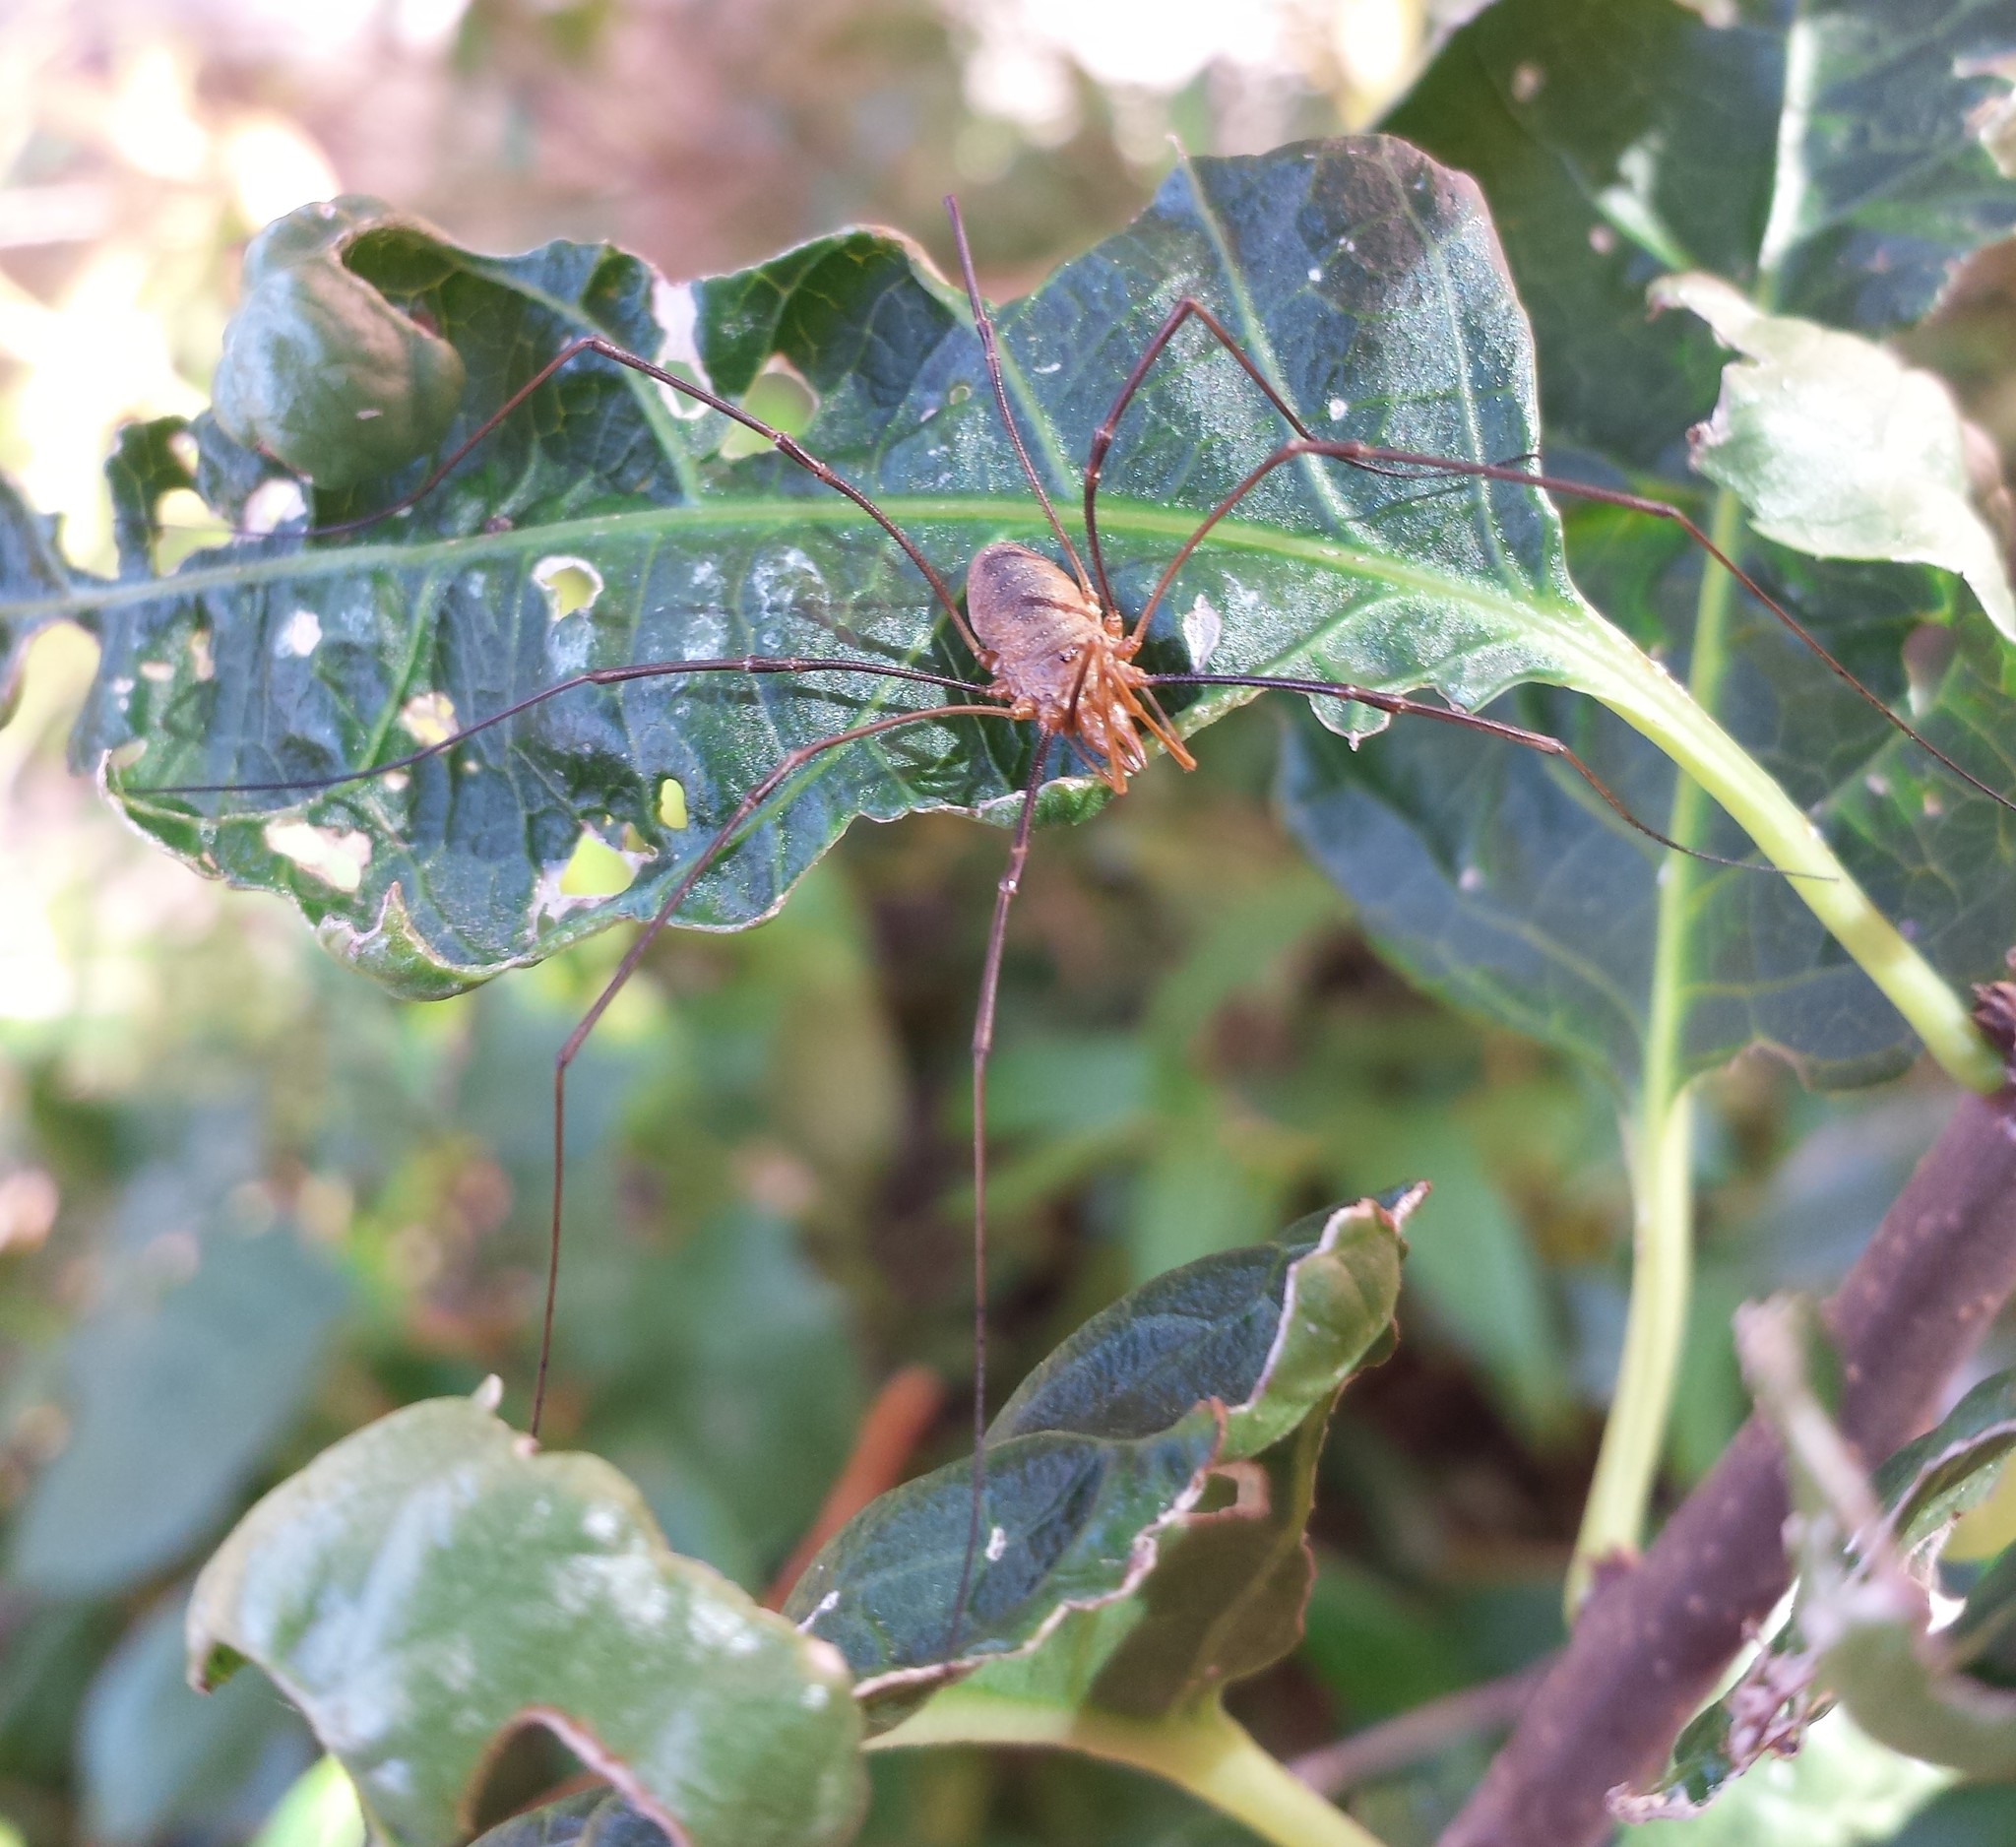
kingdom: Animalia
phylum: Arthropoda
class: Arachnida
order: Opiliones
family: Phalangiidae
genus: Phalangium
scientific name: Phalangium opilio
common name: Daddy longleg
